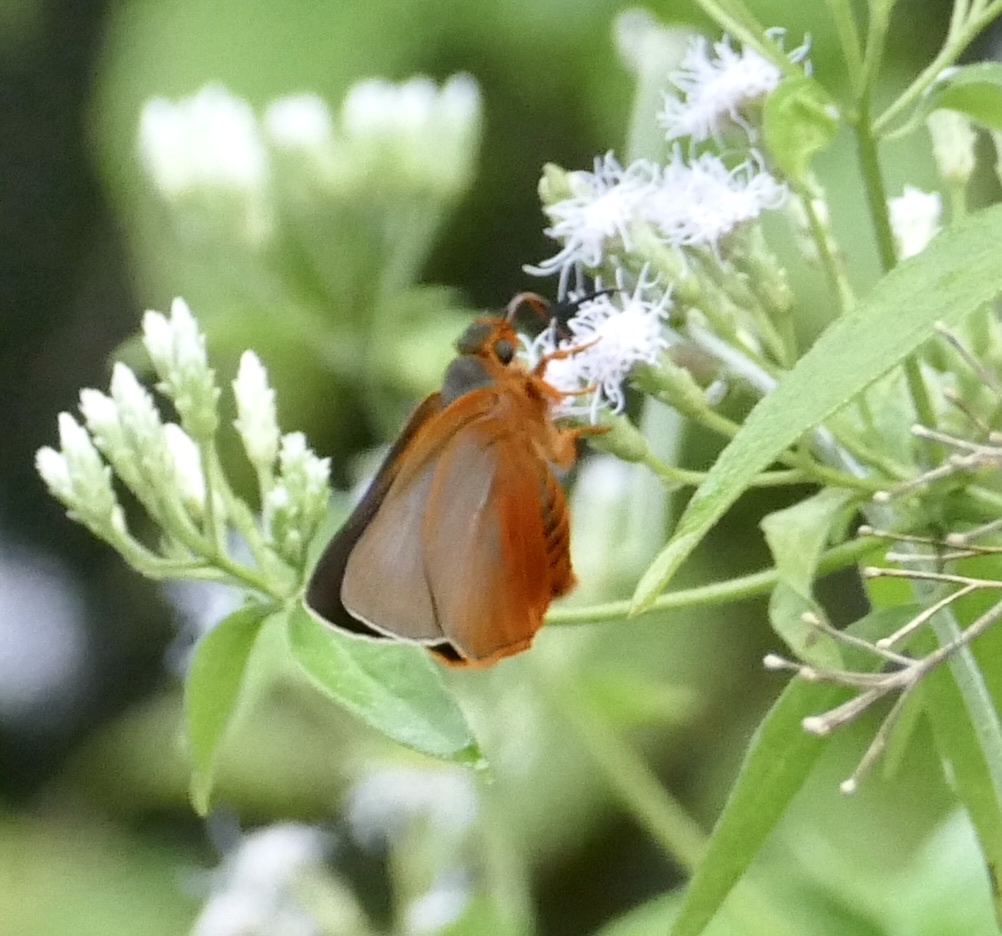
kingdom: Animalia
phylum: Arthropoda
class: Insecta
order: Lepidoptera
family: Hesperiidae
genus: Bibasis
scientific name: Bibasis phul
